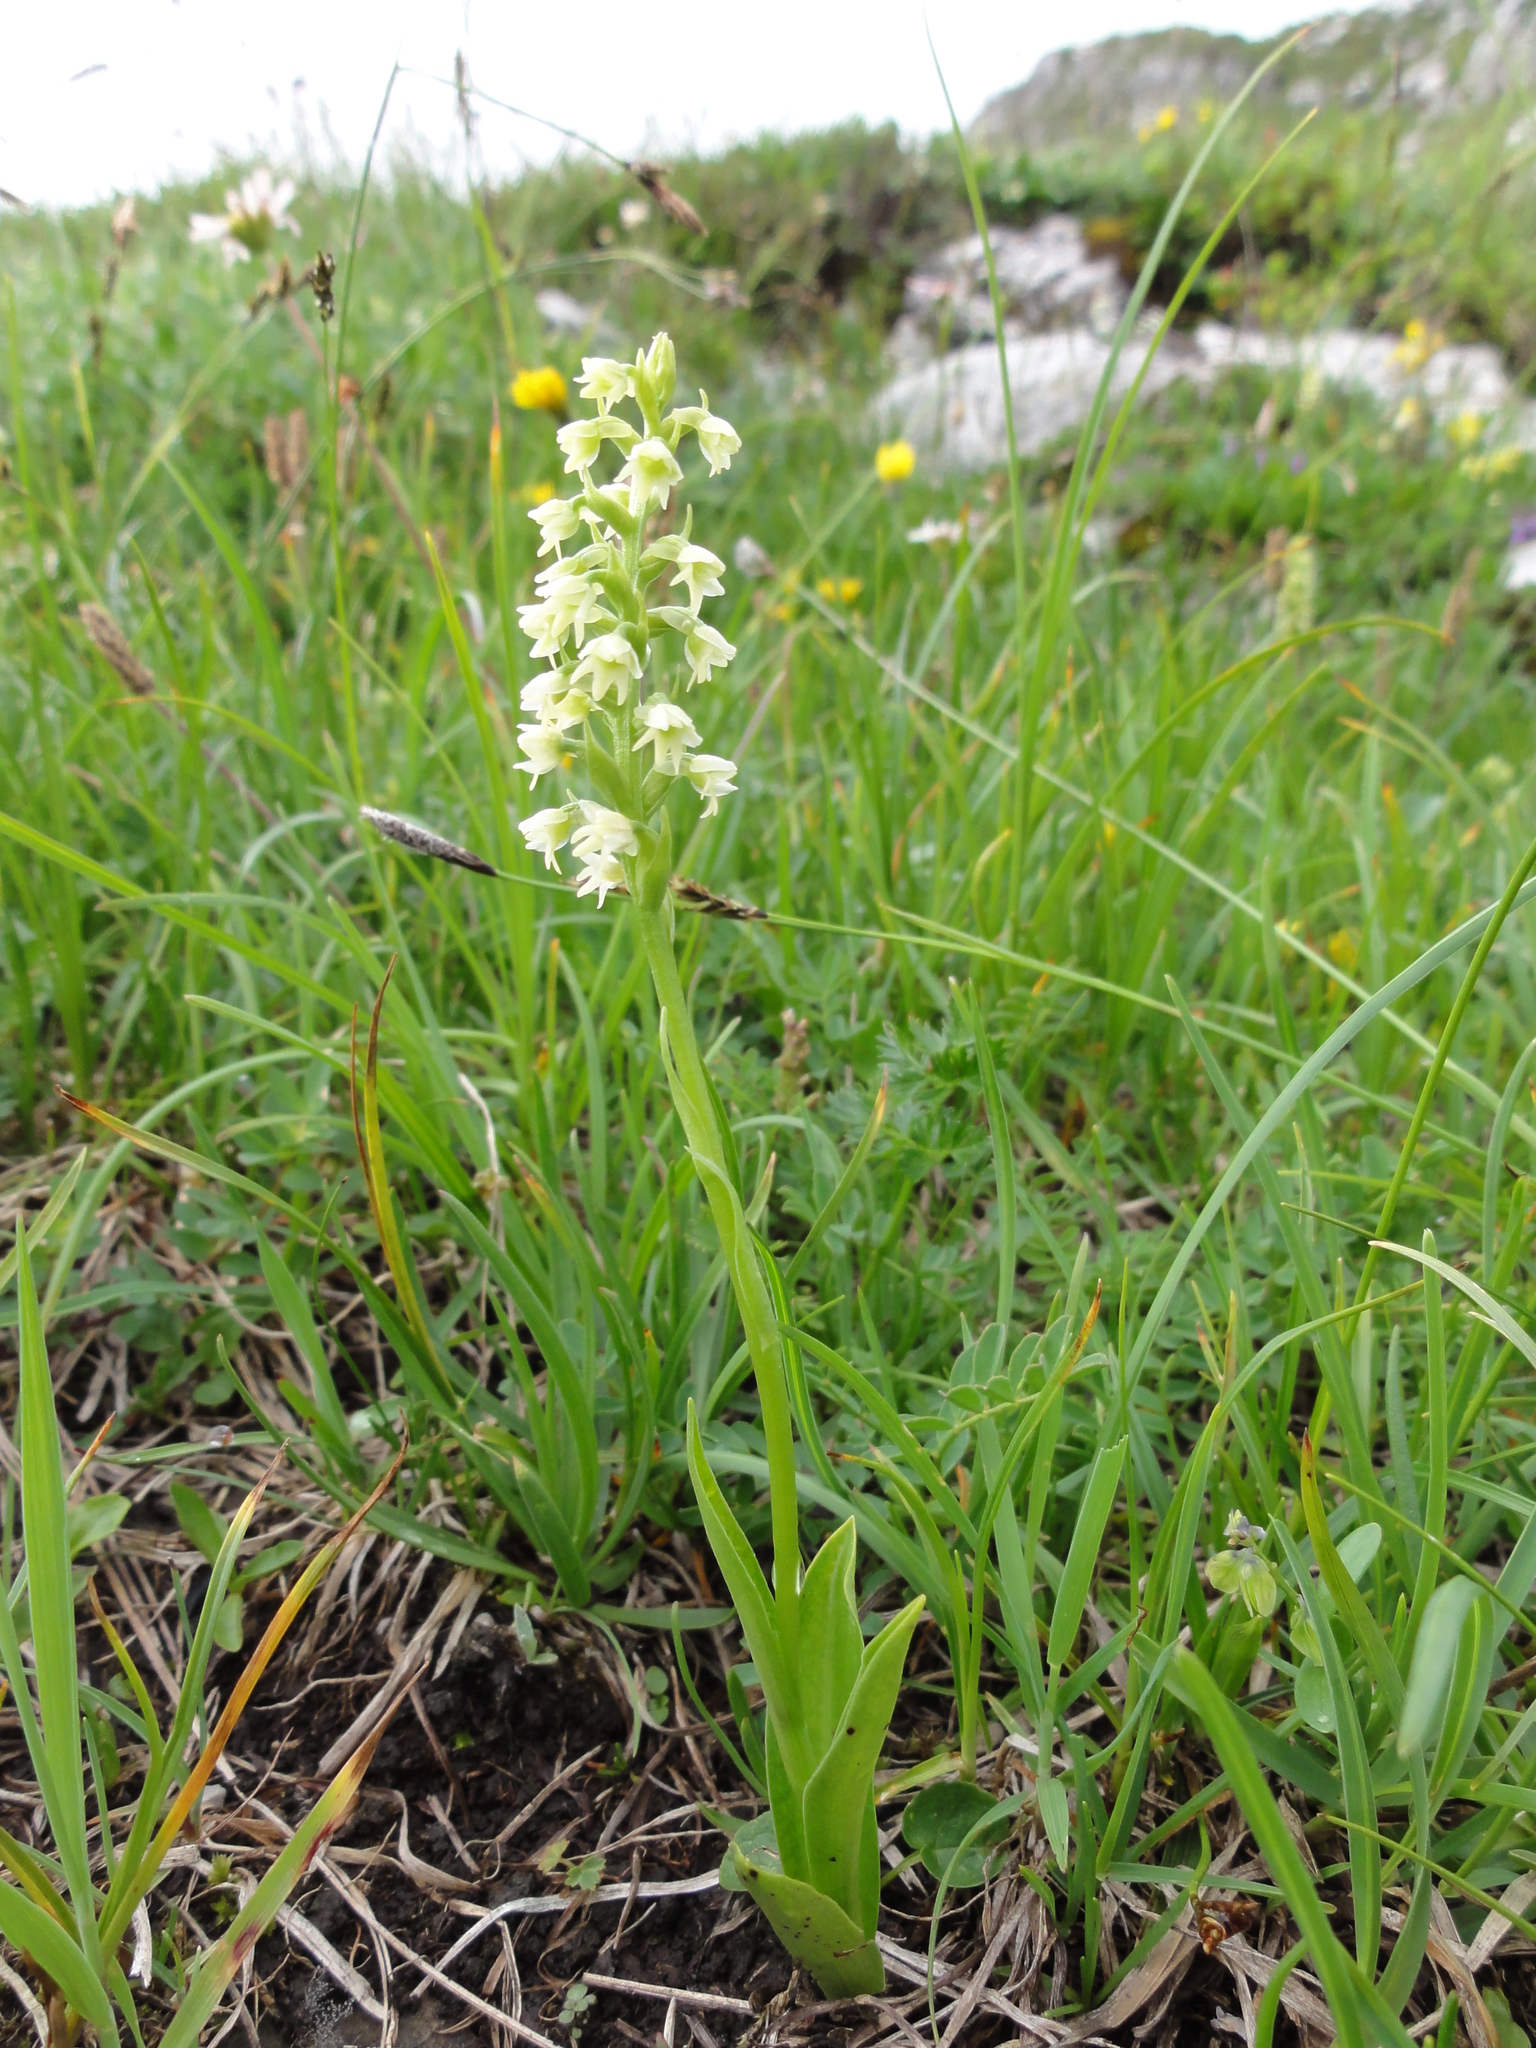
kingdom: Plantae
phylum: Tracheophyta
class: Liliopsida
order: Asparagales
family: Orchidaceae
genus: Pseudorchis
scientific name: Pseudorchis albida
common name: Small-white orchid
